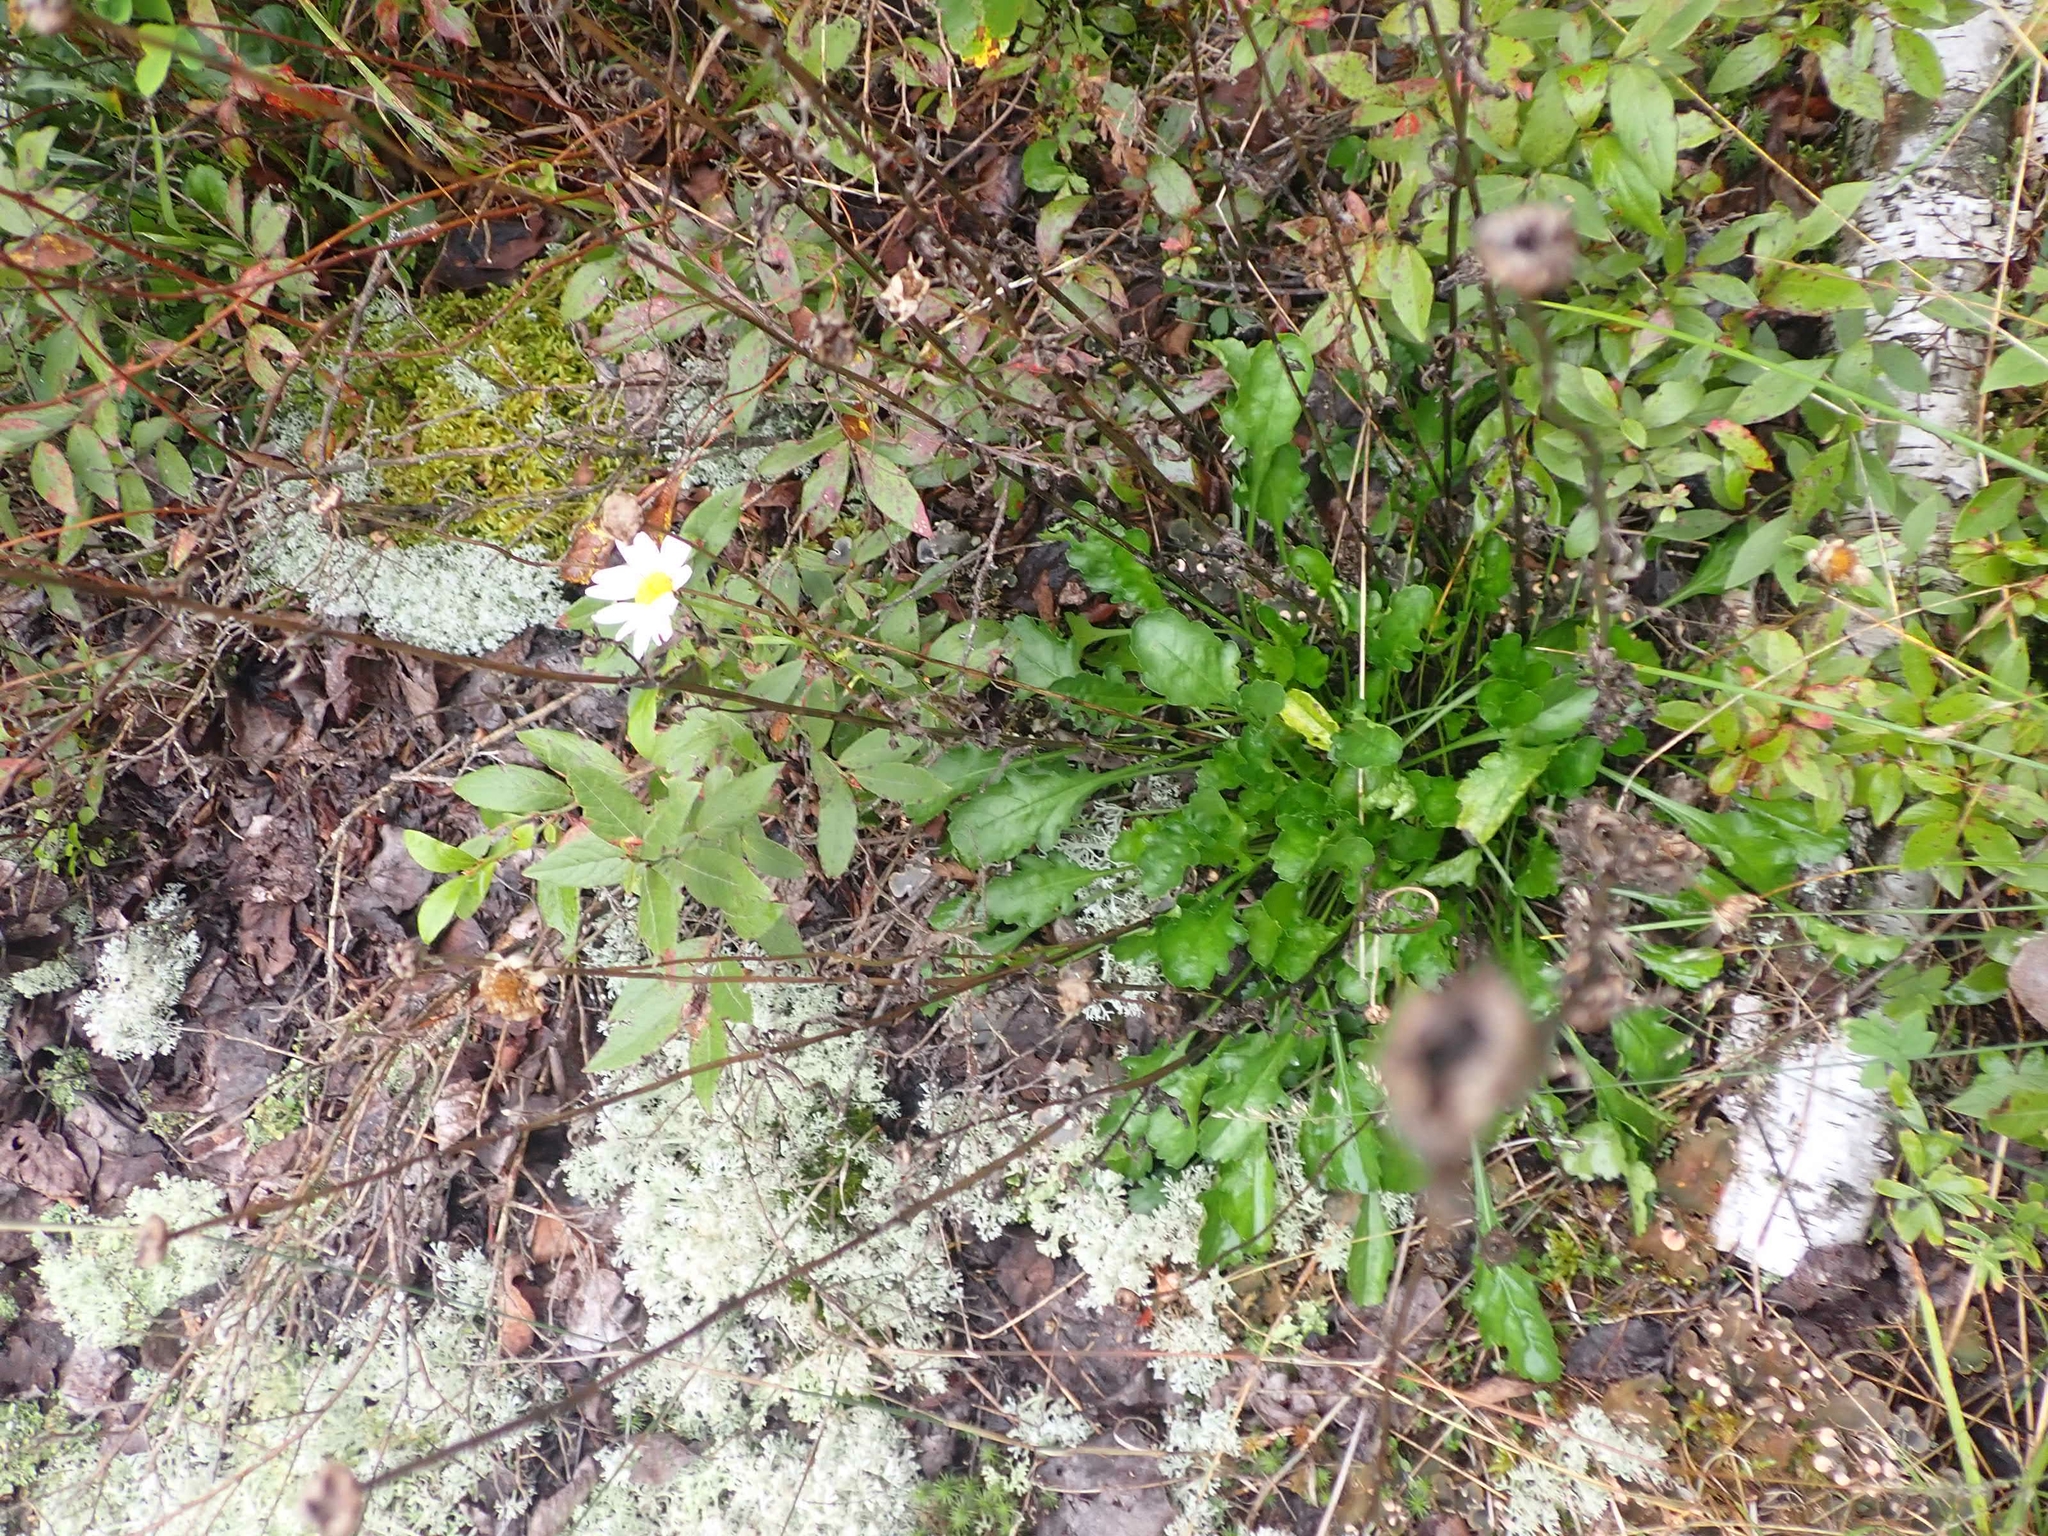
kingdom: Plantae
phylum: Tracheophyta
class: Magnoliopsida
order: Asterales
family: Asteraceae
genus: Leucanthemum
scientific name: Leucanthemum vulgare
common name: Oxeye daisy
